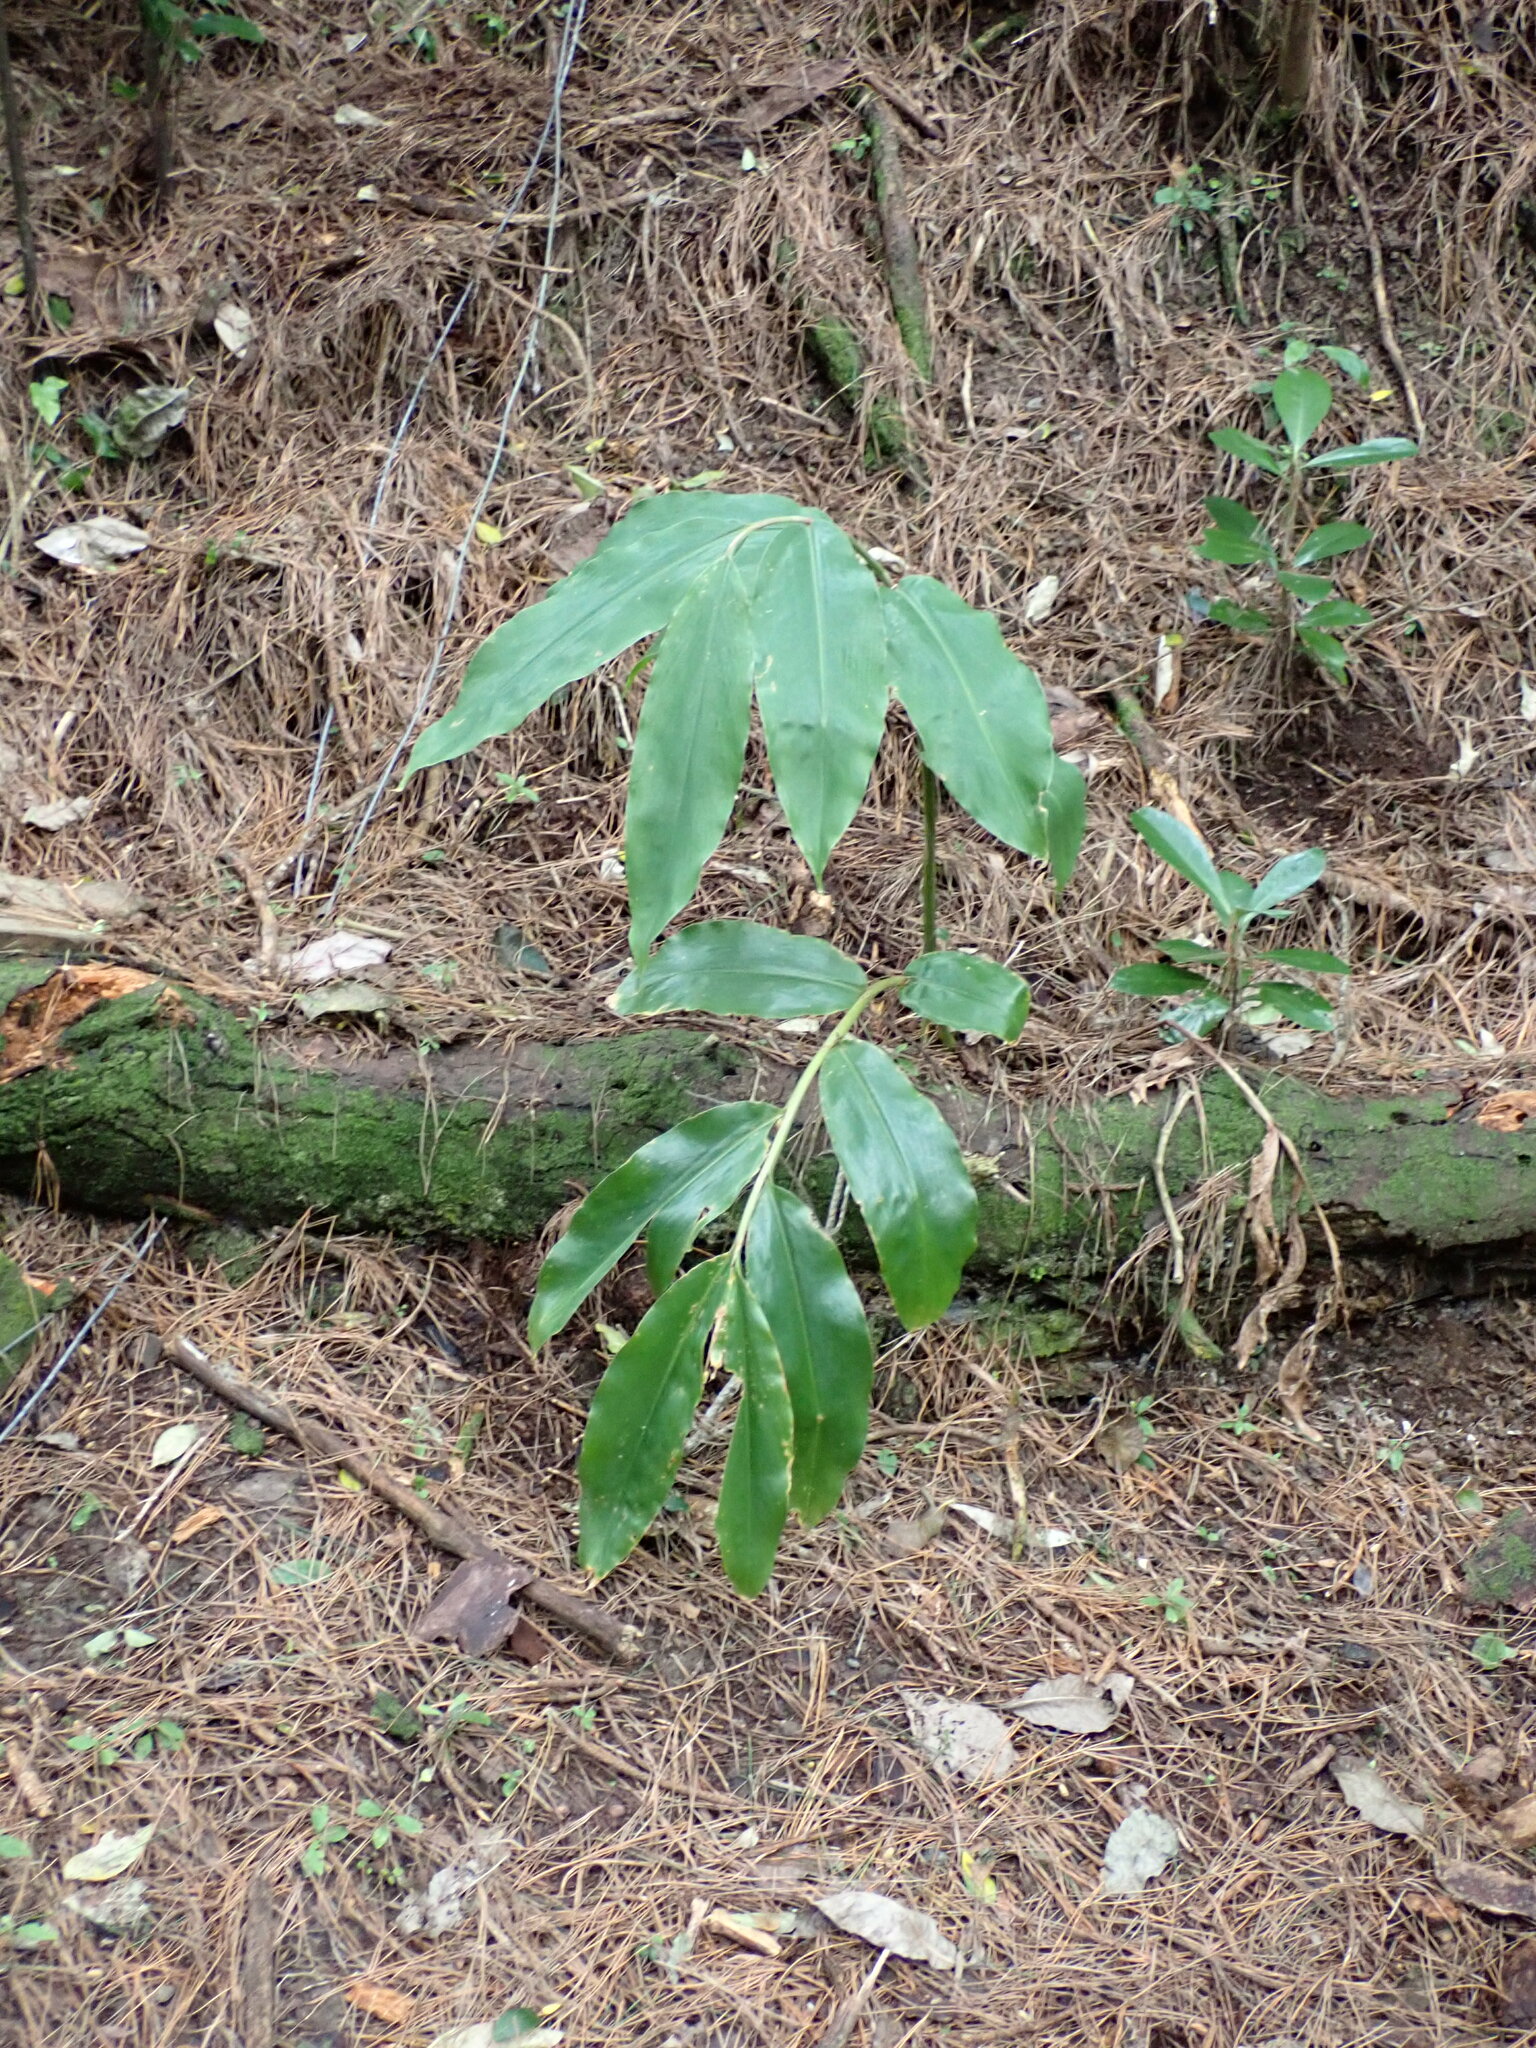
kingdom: Plantae
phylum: Tracheophyta
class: Liliopsida
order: Zingiberales
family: Zingiberaceae
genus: Hedychium
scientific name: Hedychium gardnerianum
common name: Himalayan ginger
